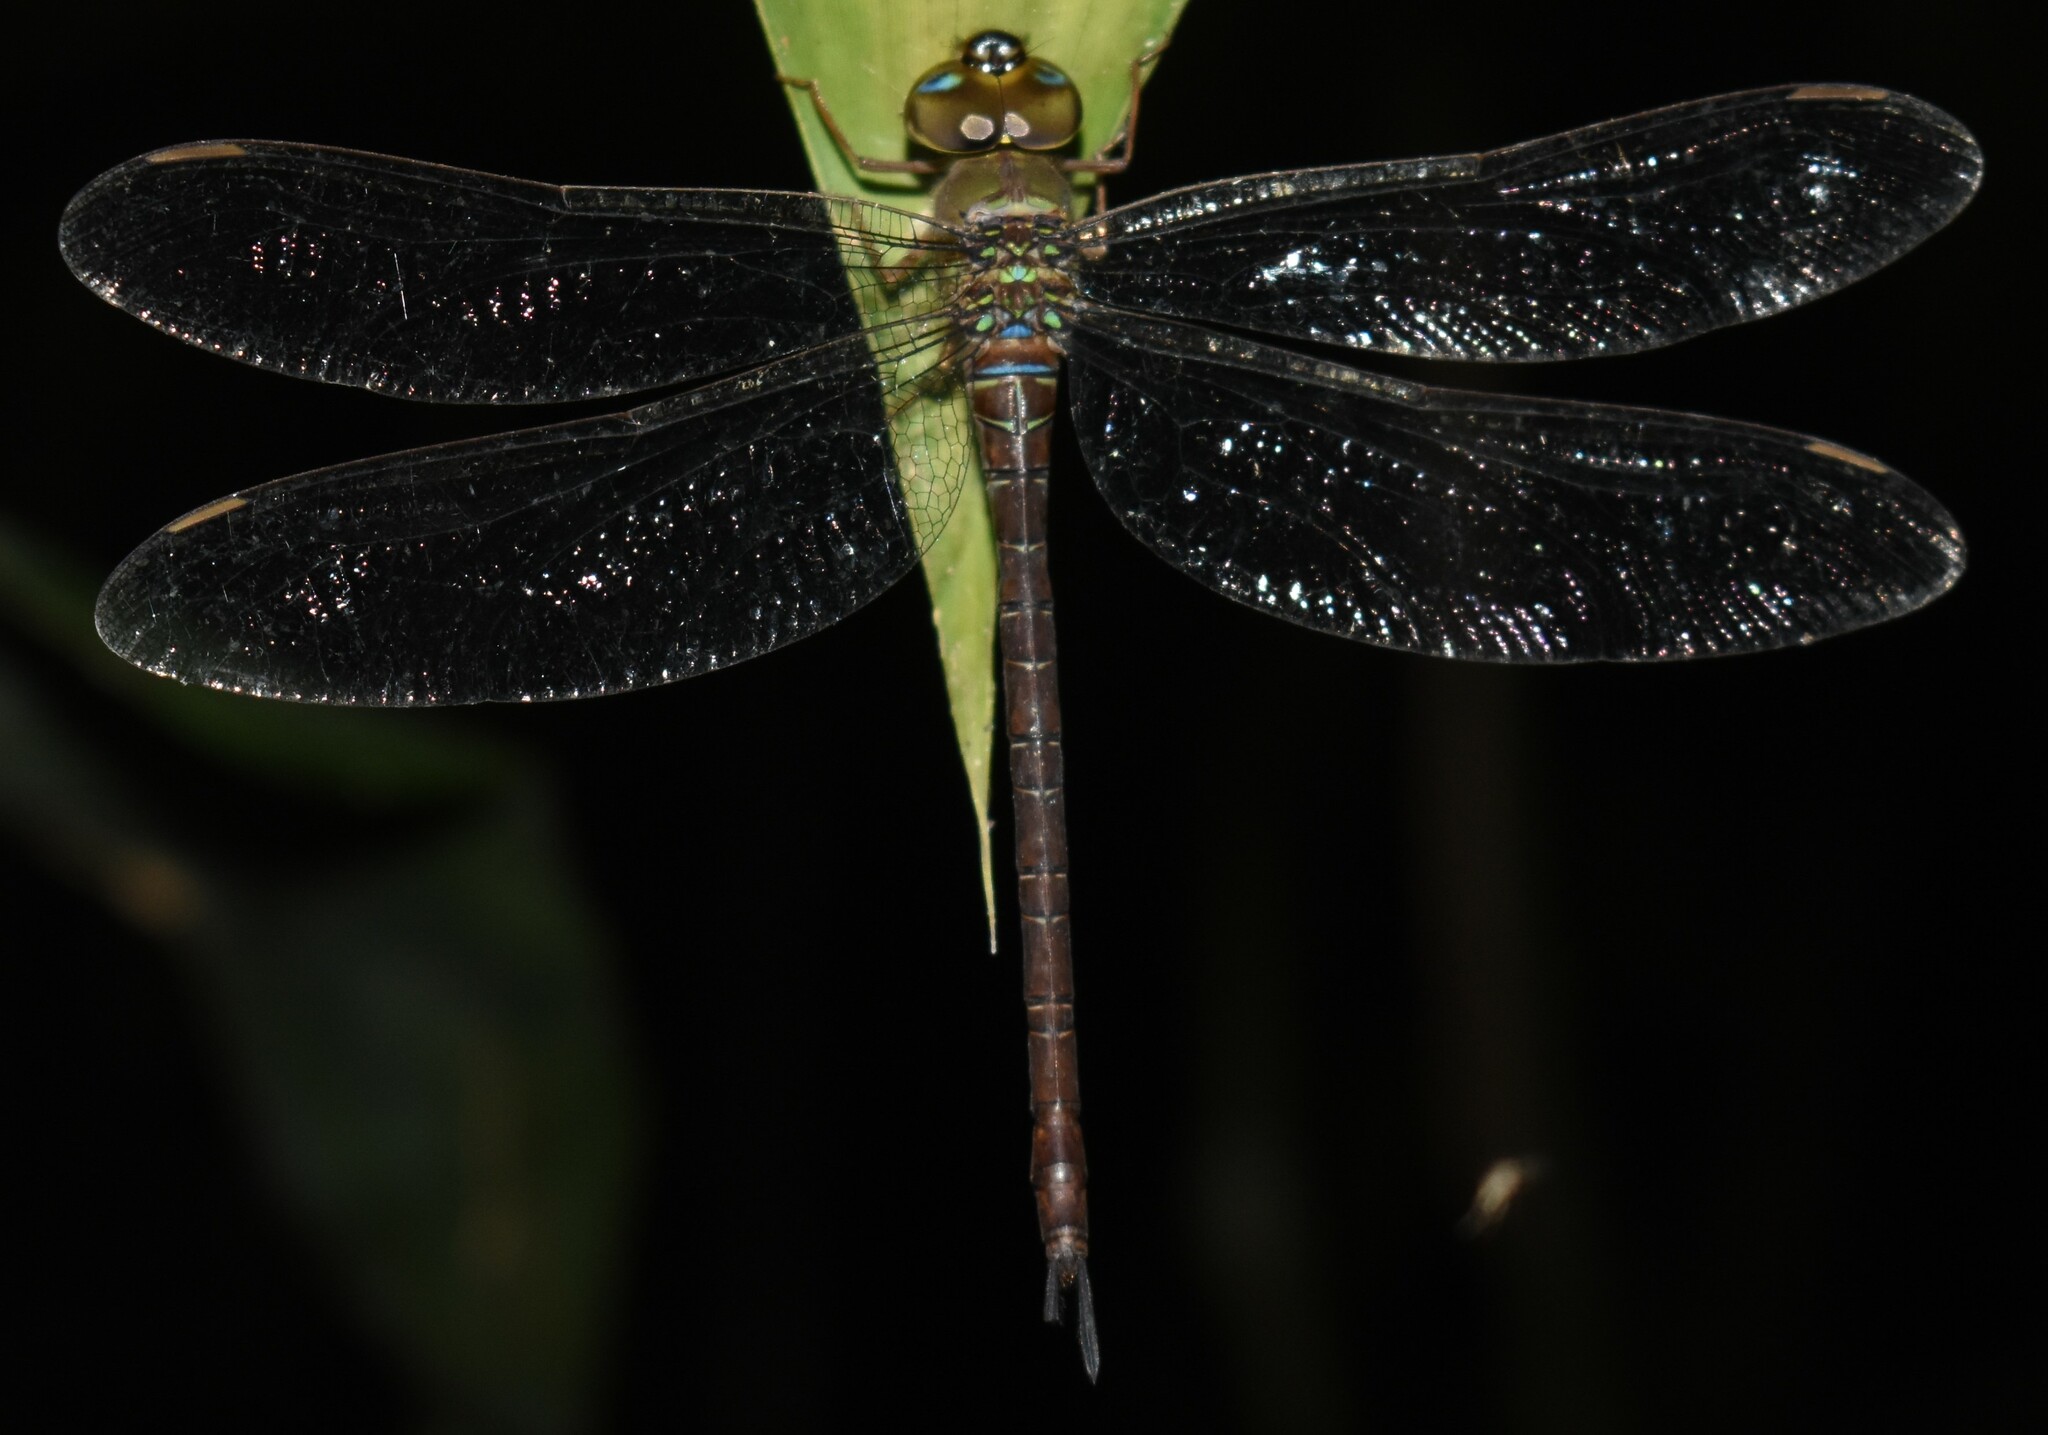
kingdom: Animalia
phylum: Arthropoda
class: Insecta
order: Odonata
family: Aeshnidae
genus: Gynacantha
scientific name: Gynacantha nervosa
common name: Twilight darner
